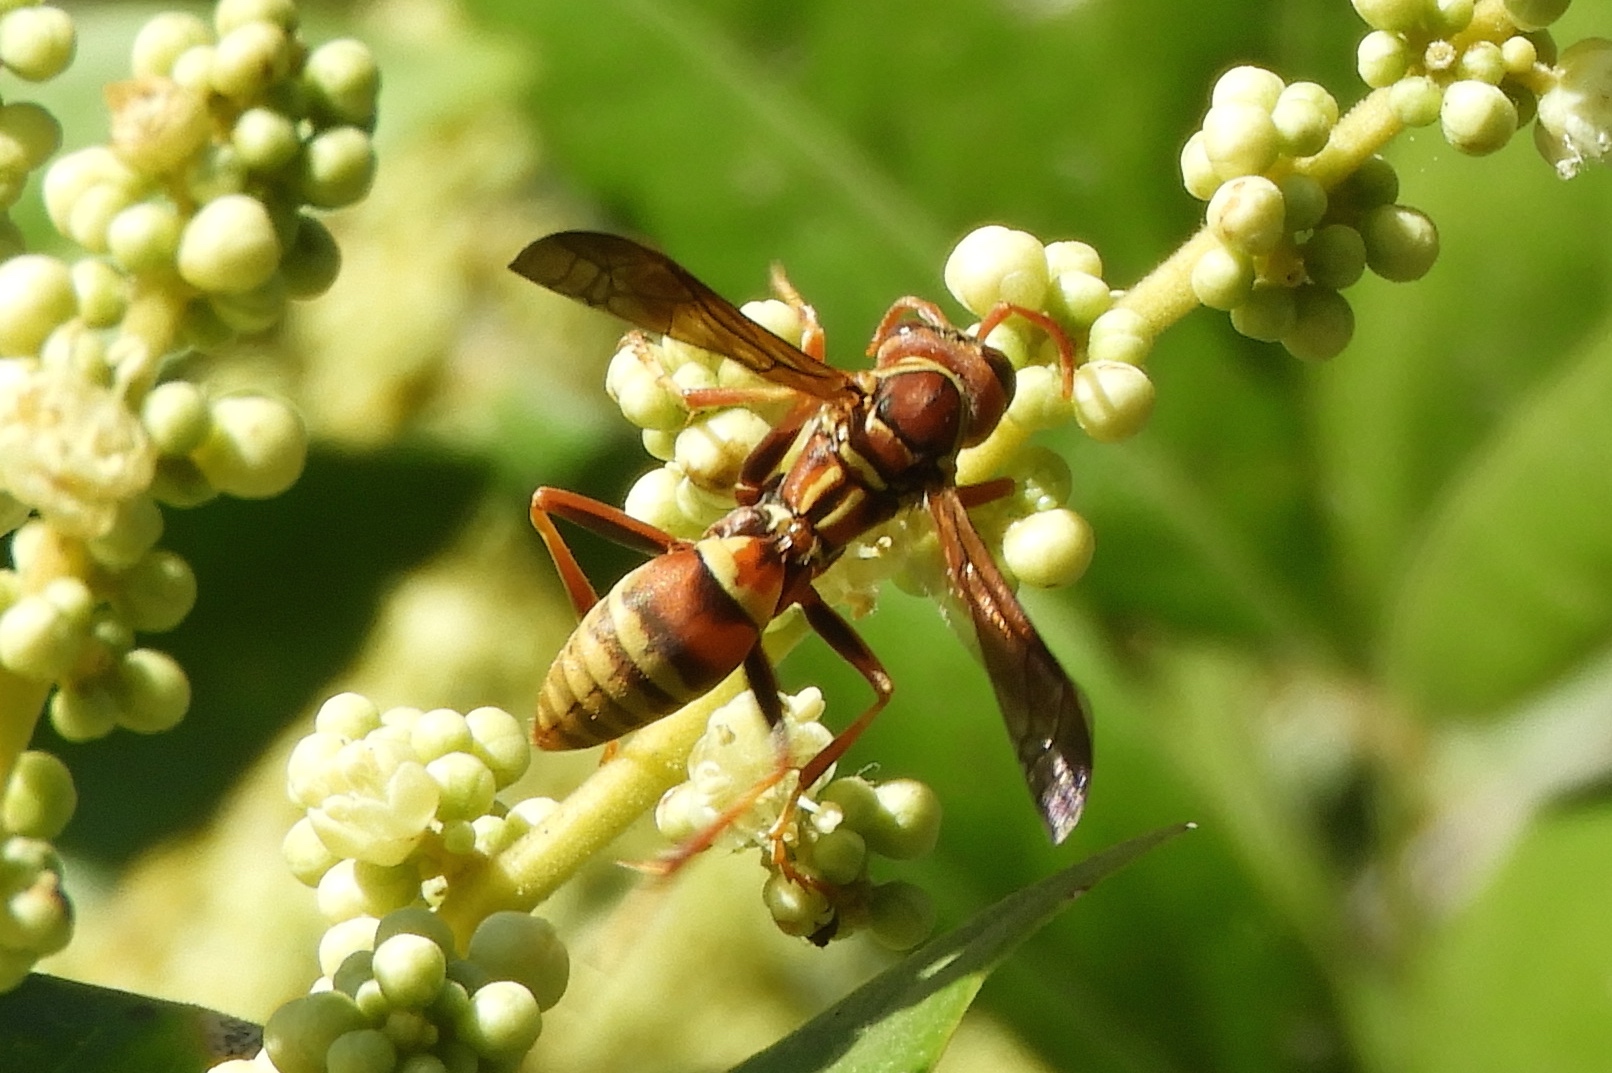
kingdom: Animalia
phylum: Arthropoda
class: Insecta
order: Hymenoptera
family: Eumenidae
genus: Polistes
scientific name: Polistes dorsalis
